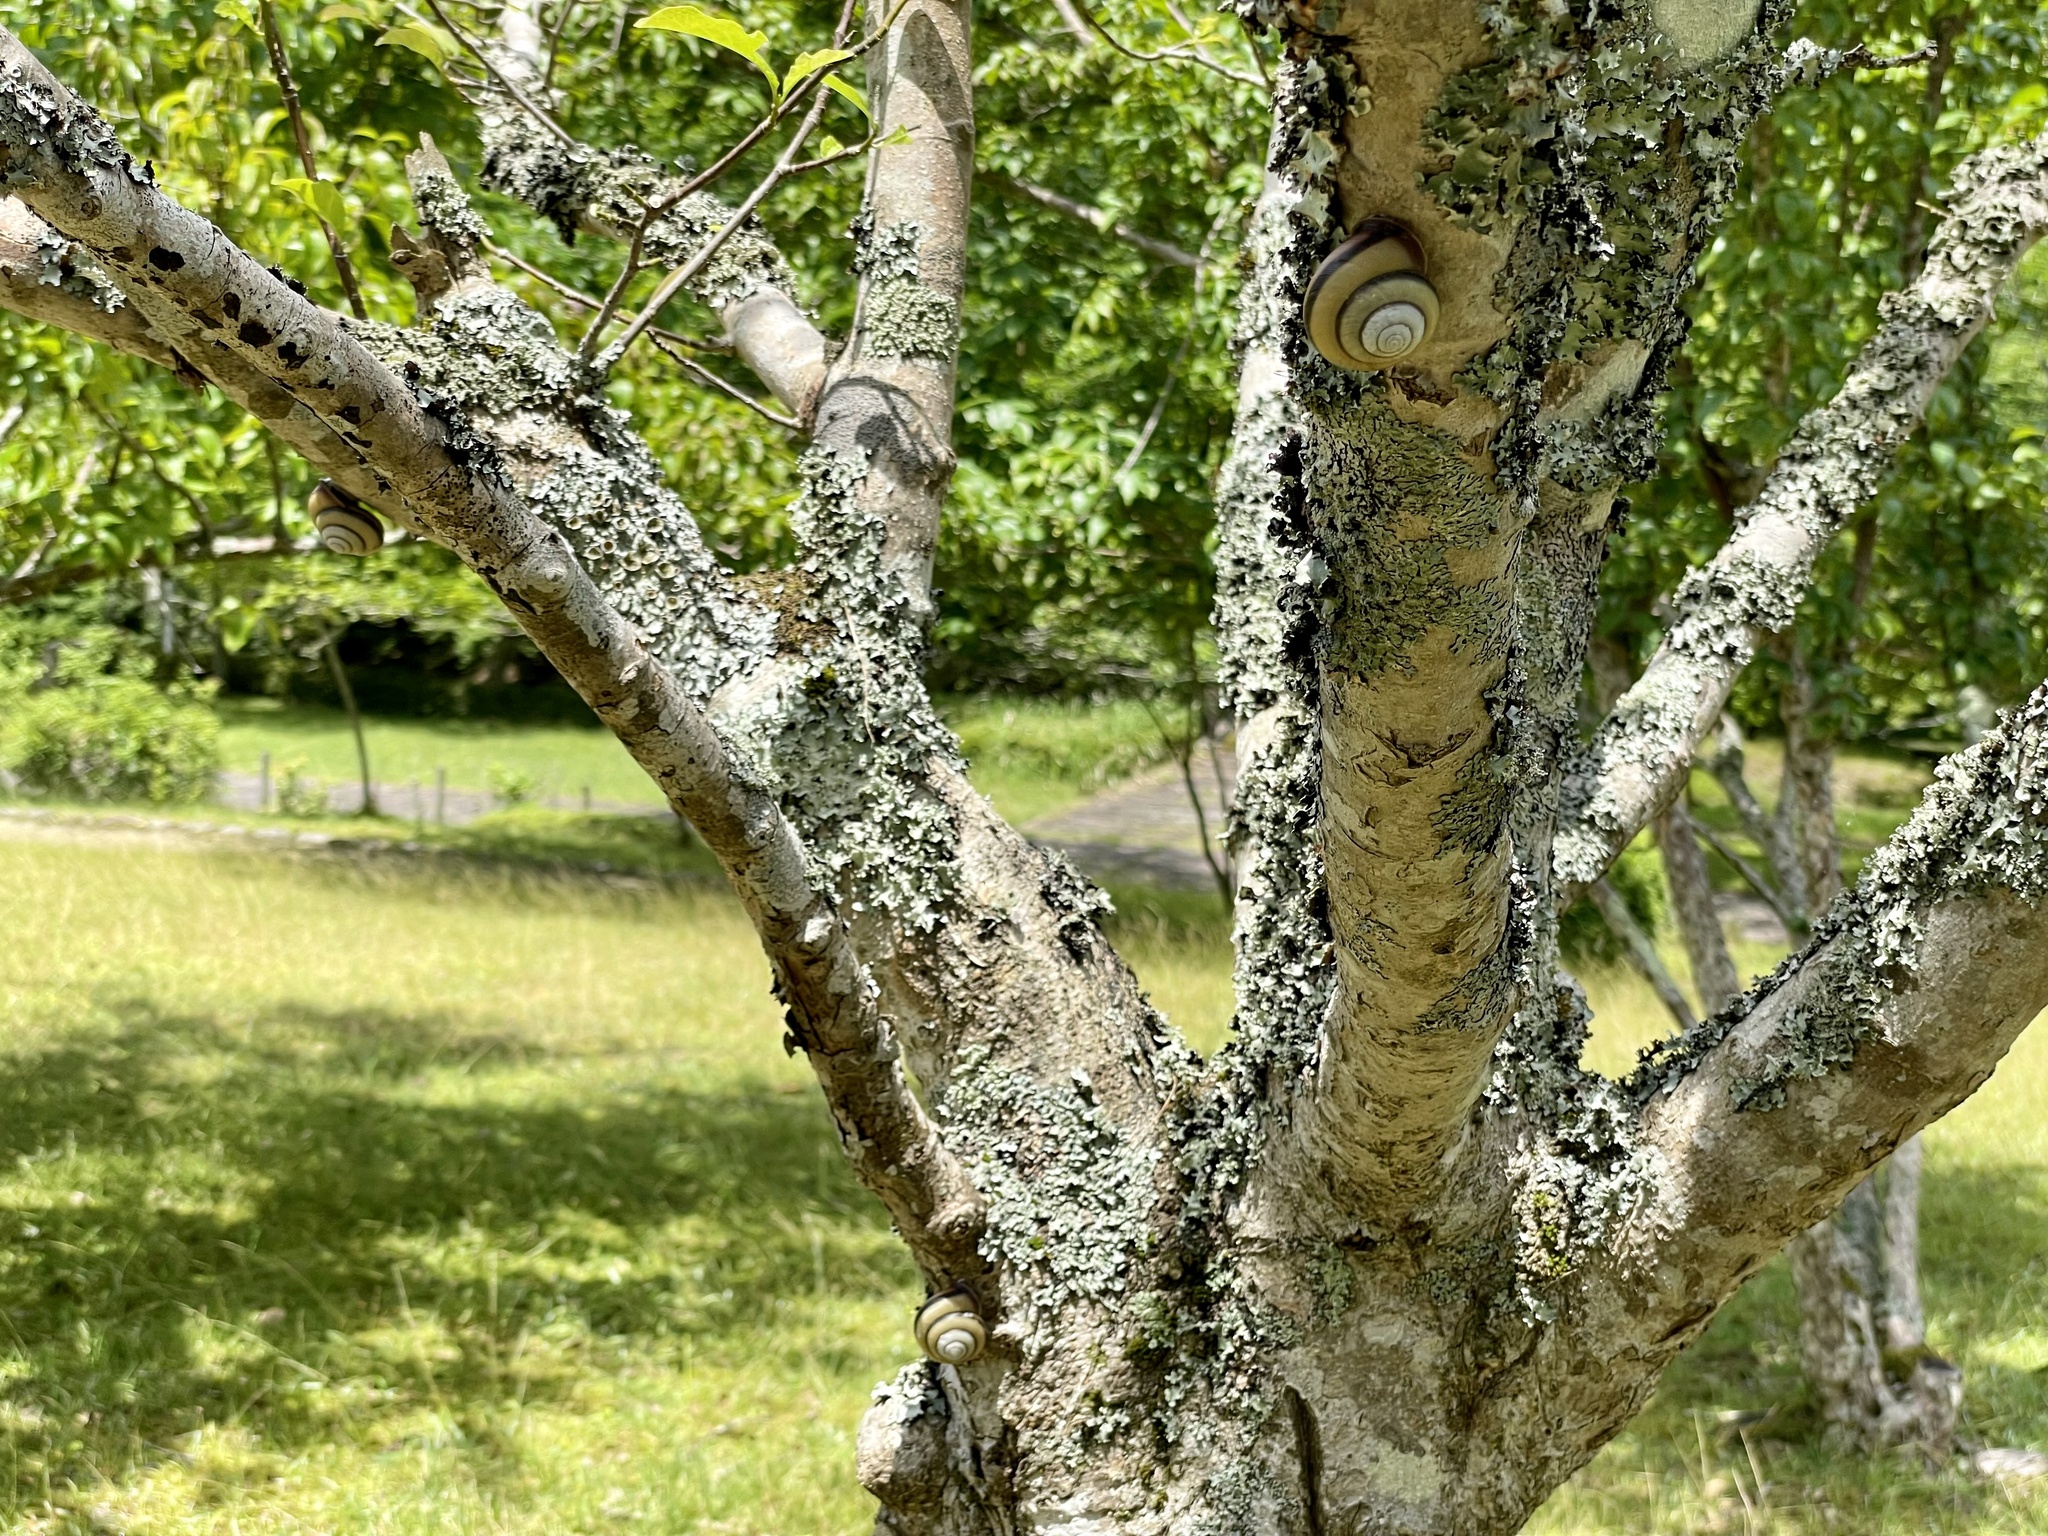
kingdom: Animalia
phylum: Mollusca
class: Gastropoda
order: Stylommatophora
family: Camaenidae
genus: Euhadra
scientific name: Euhadra amaliae
